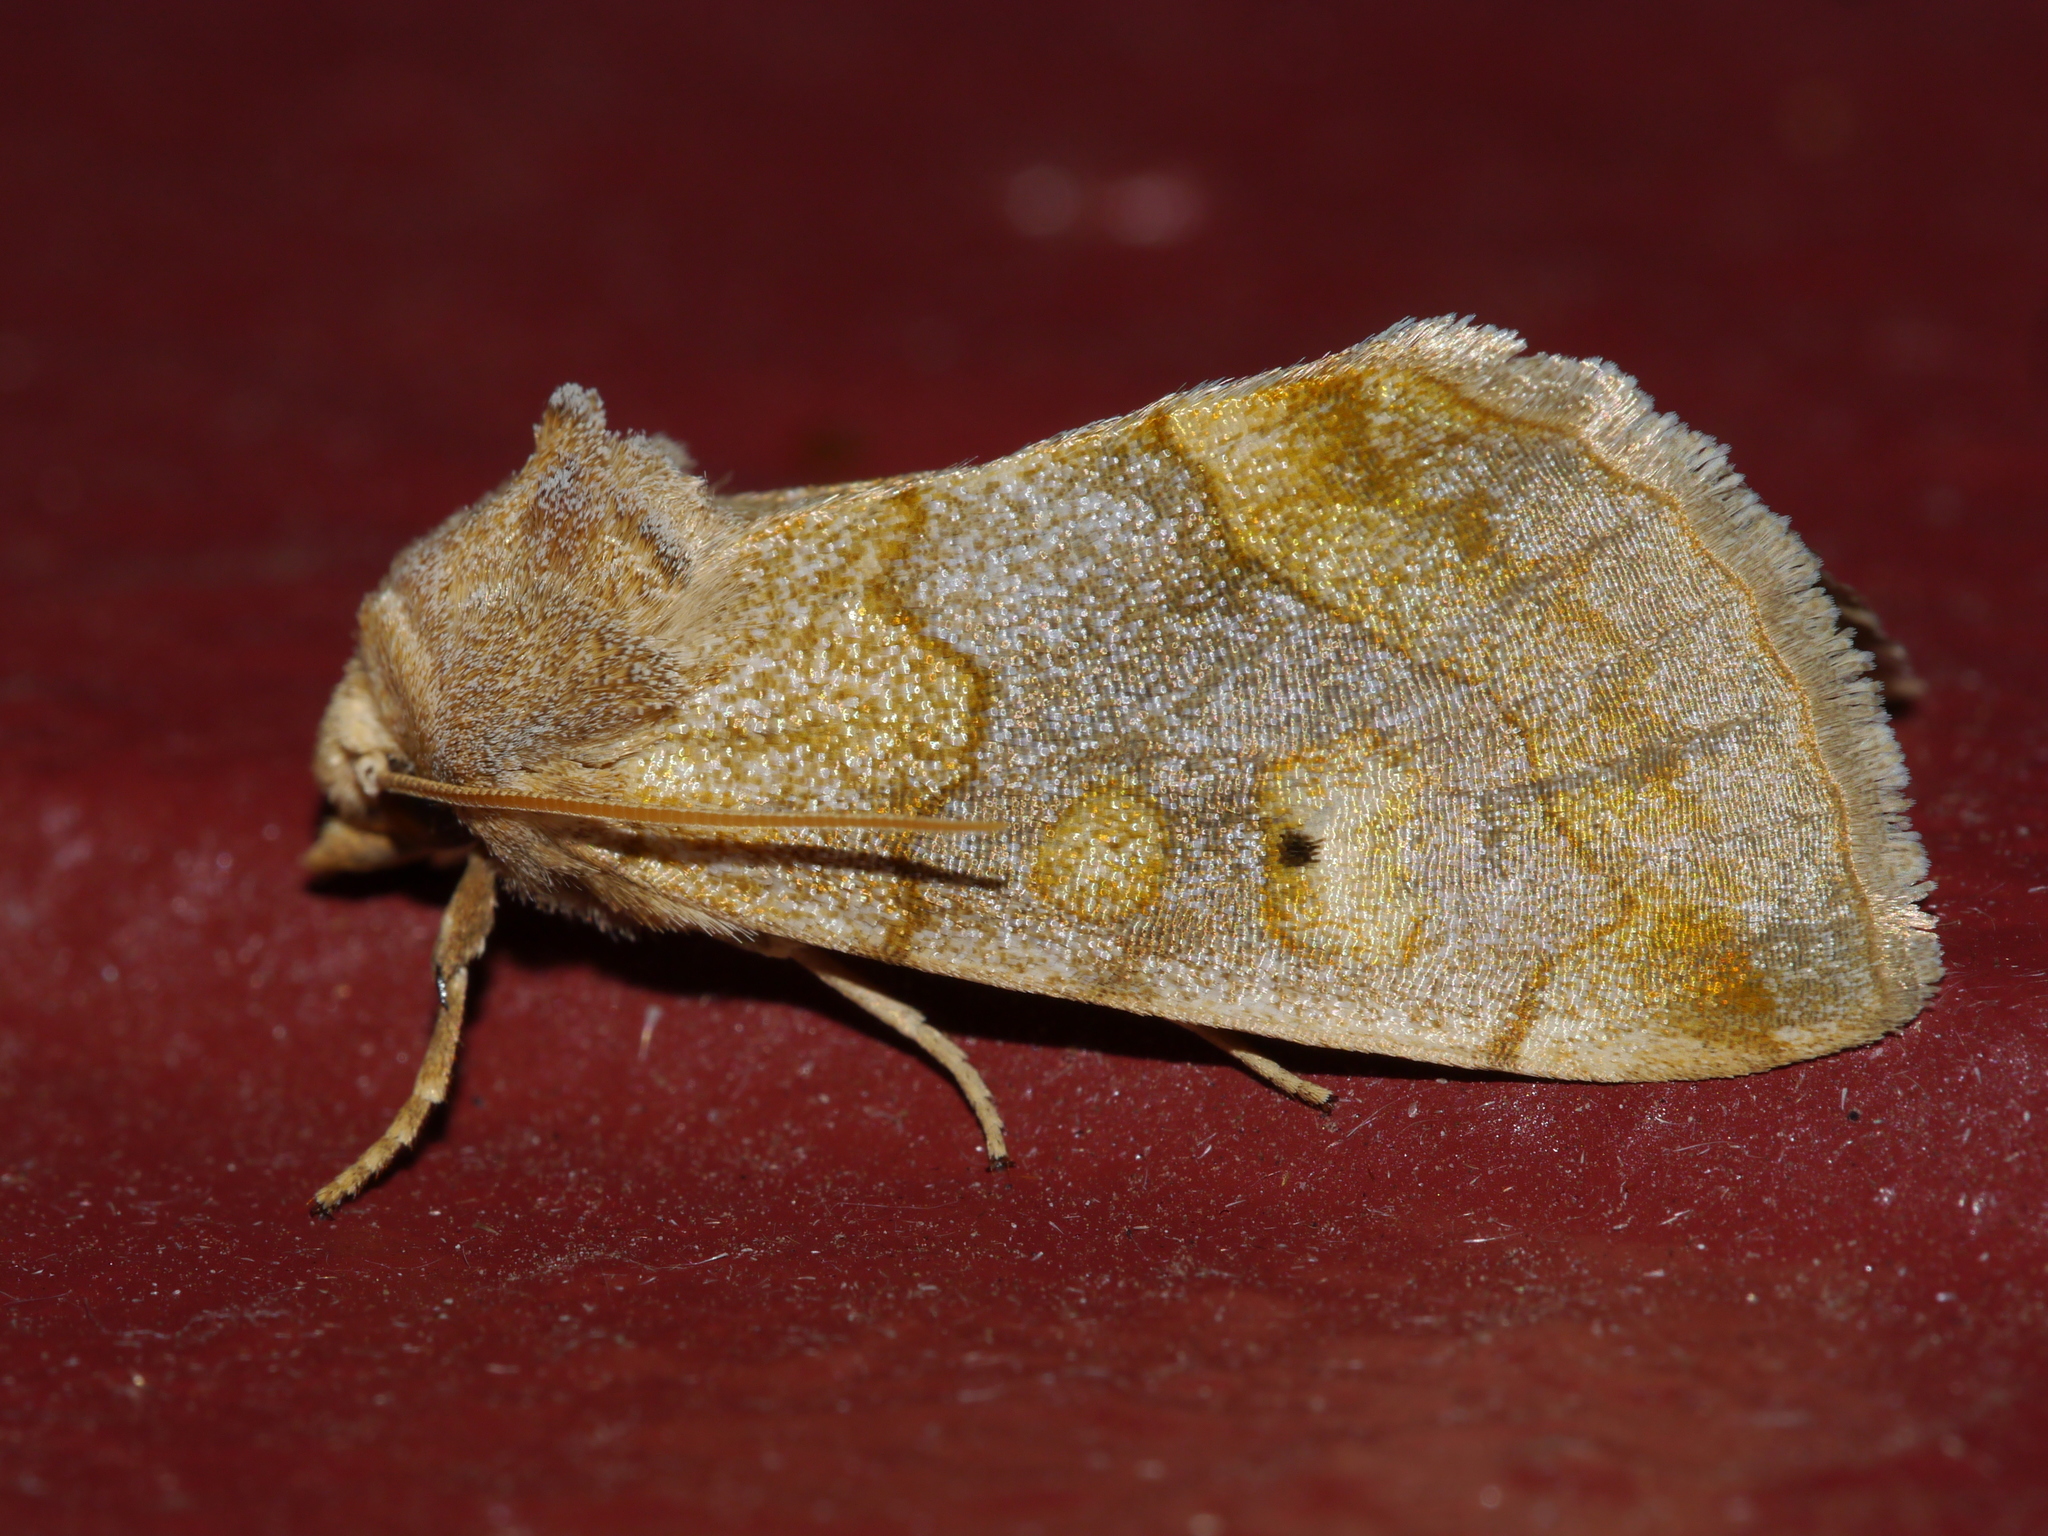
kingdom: Animalia
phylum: Arthropoda
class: Insecta
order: Lepidoptera
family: Noctuidae
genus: Basilodes
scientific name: Basilodes chrysopis
